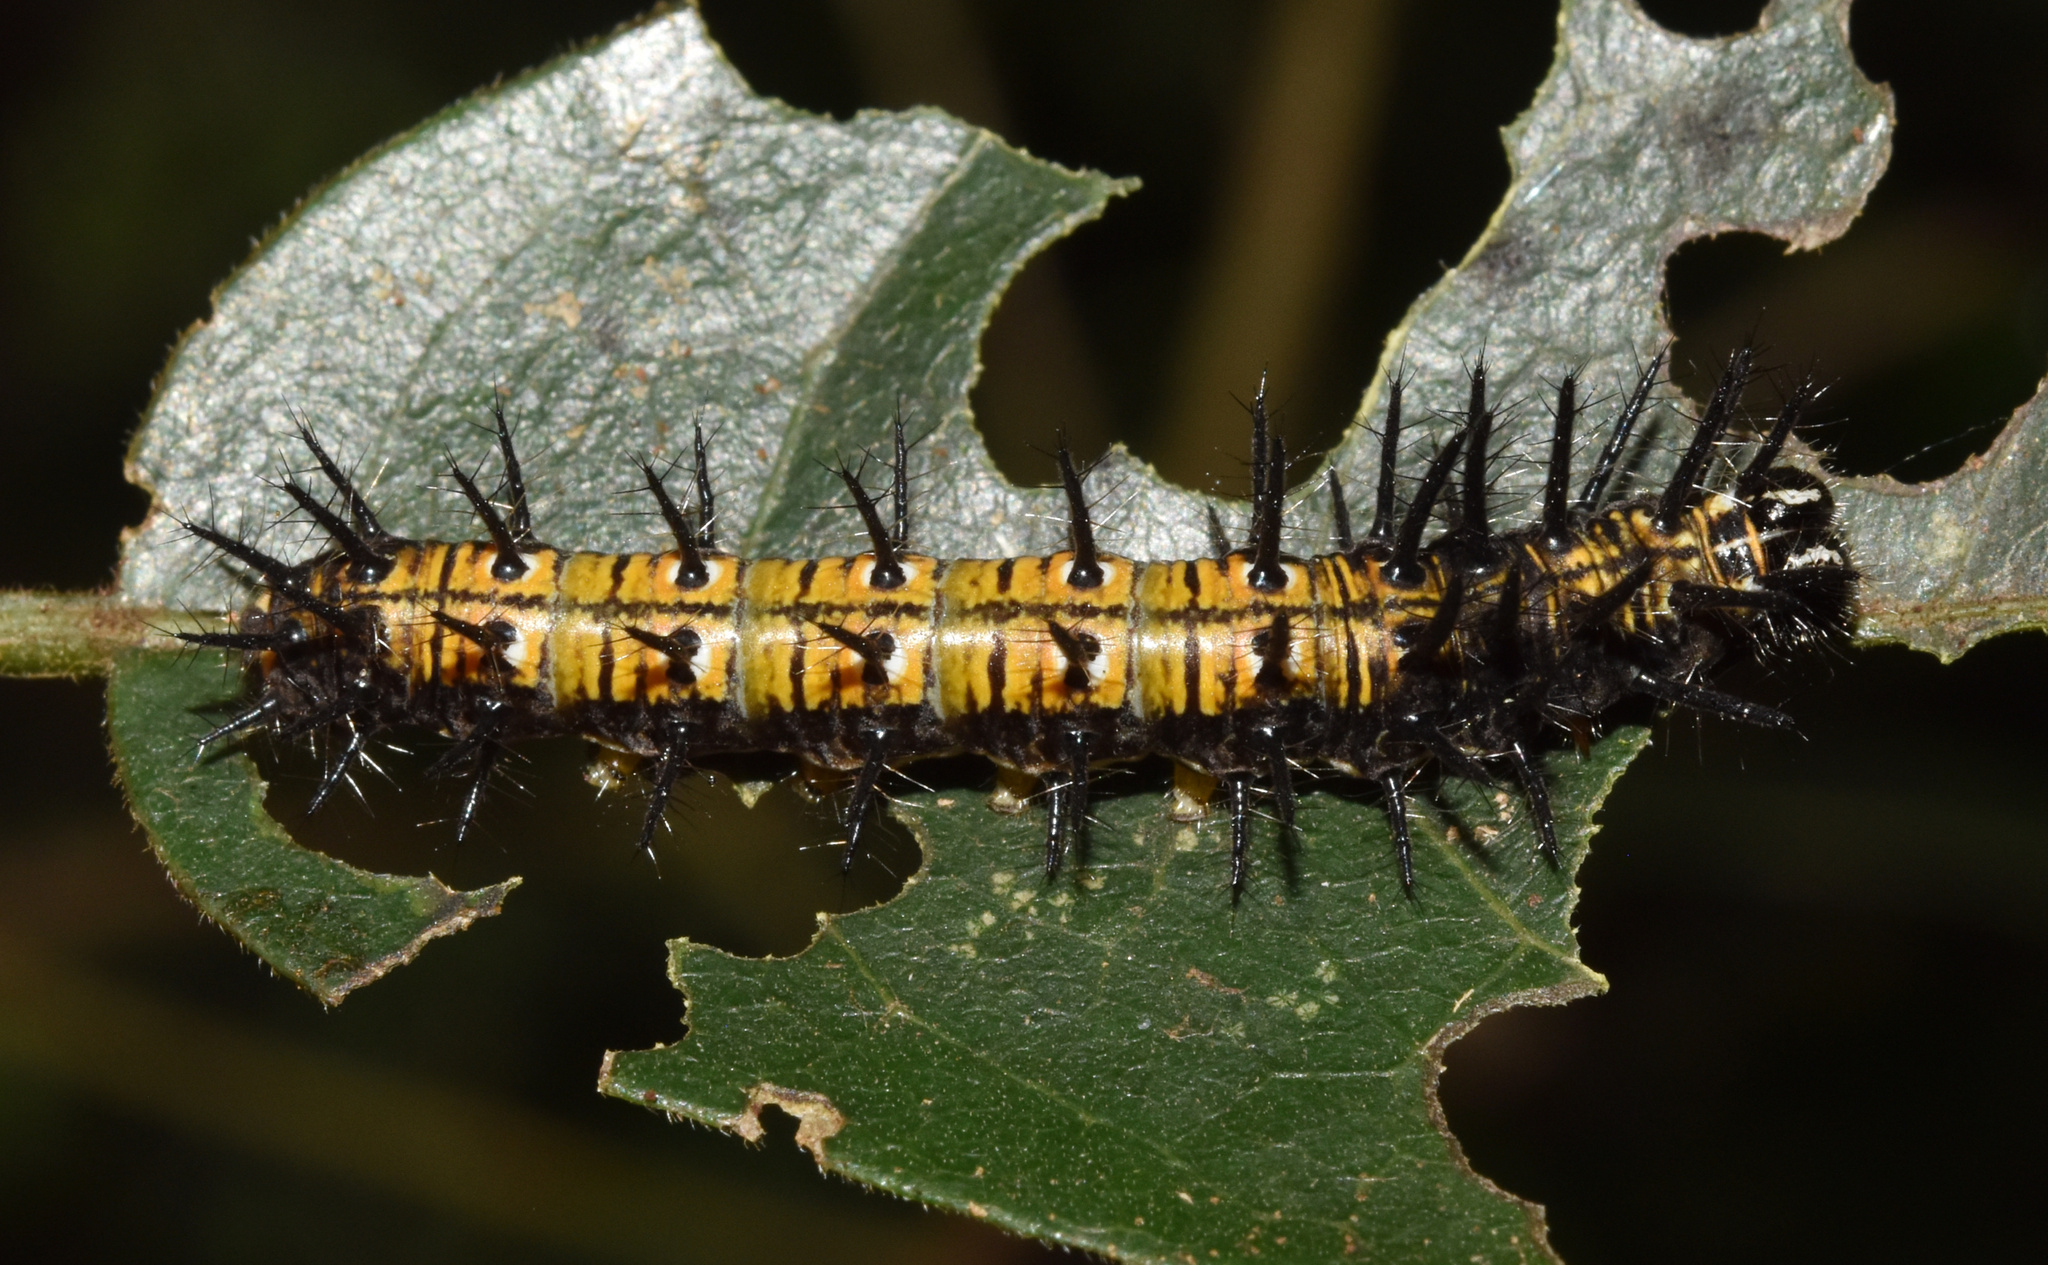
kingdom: Animalia
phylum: Arthropoda
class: Insecta
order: Lepidoptera
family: Nymphalidae
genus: Rubraea
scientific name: Rubraea
